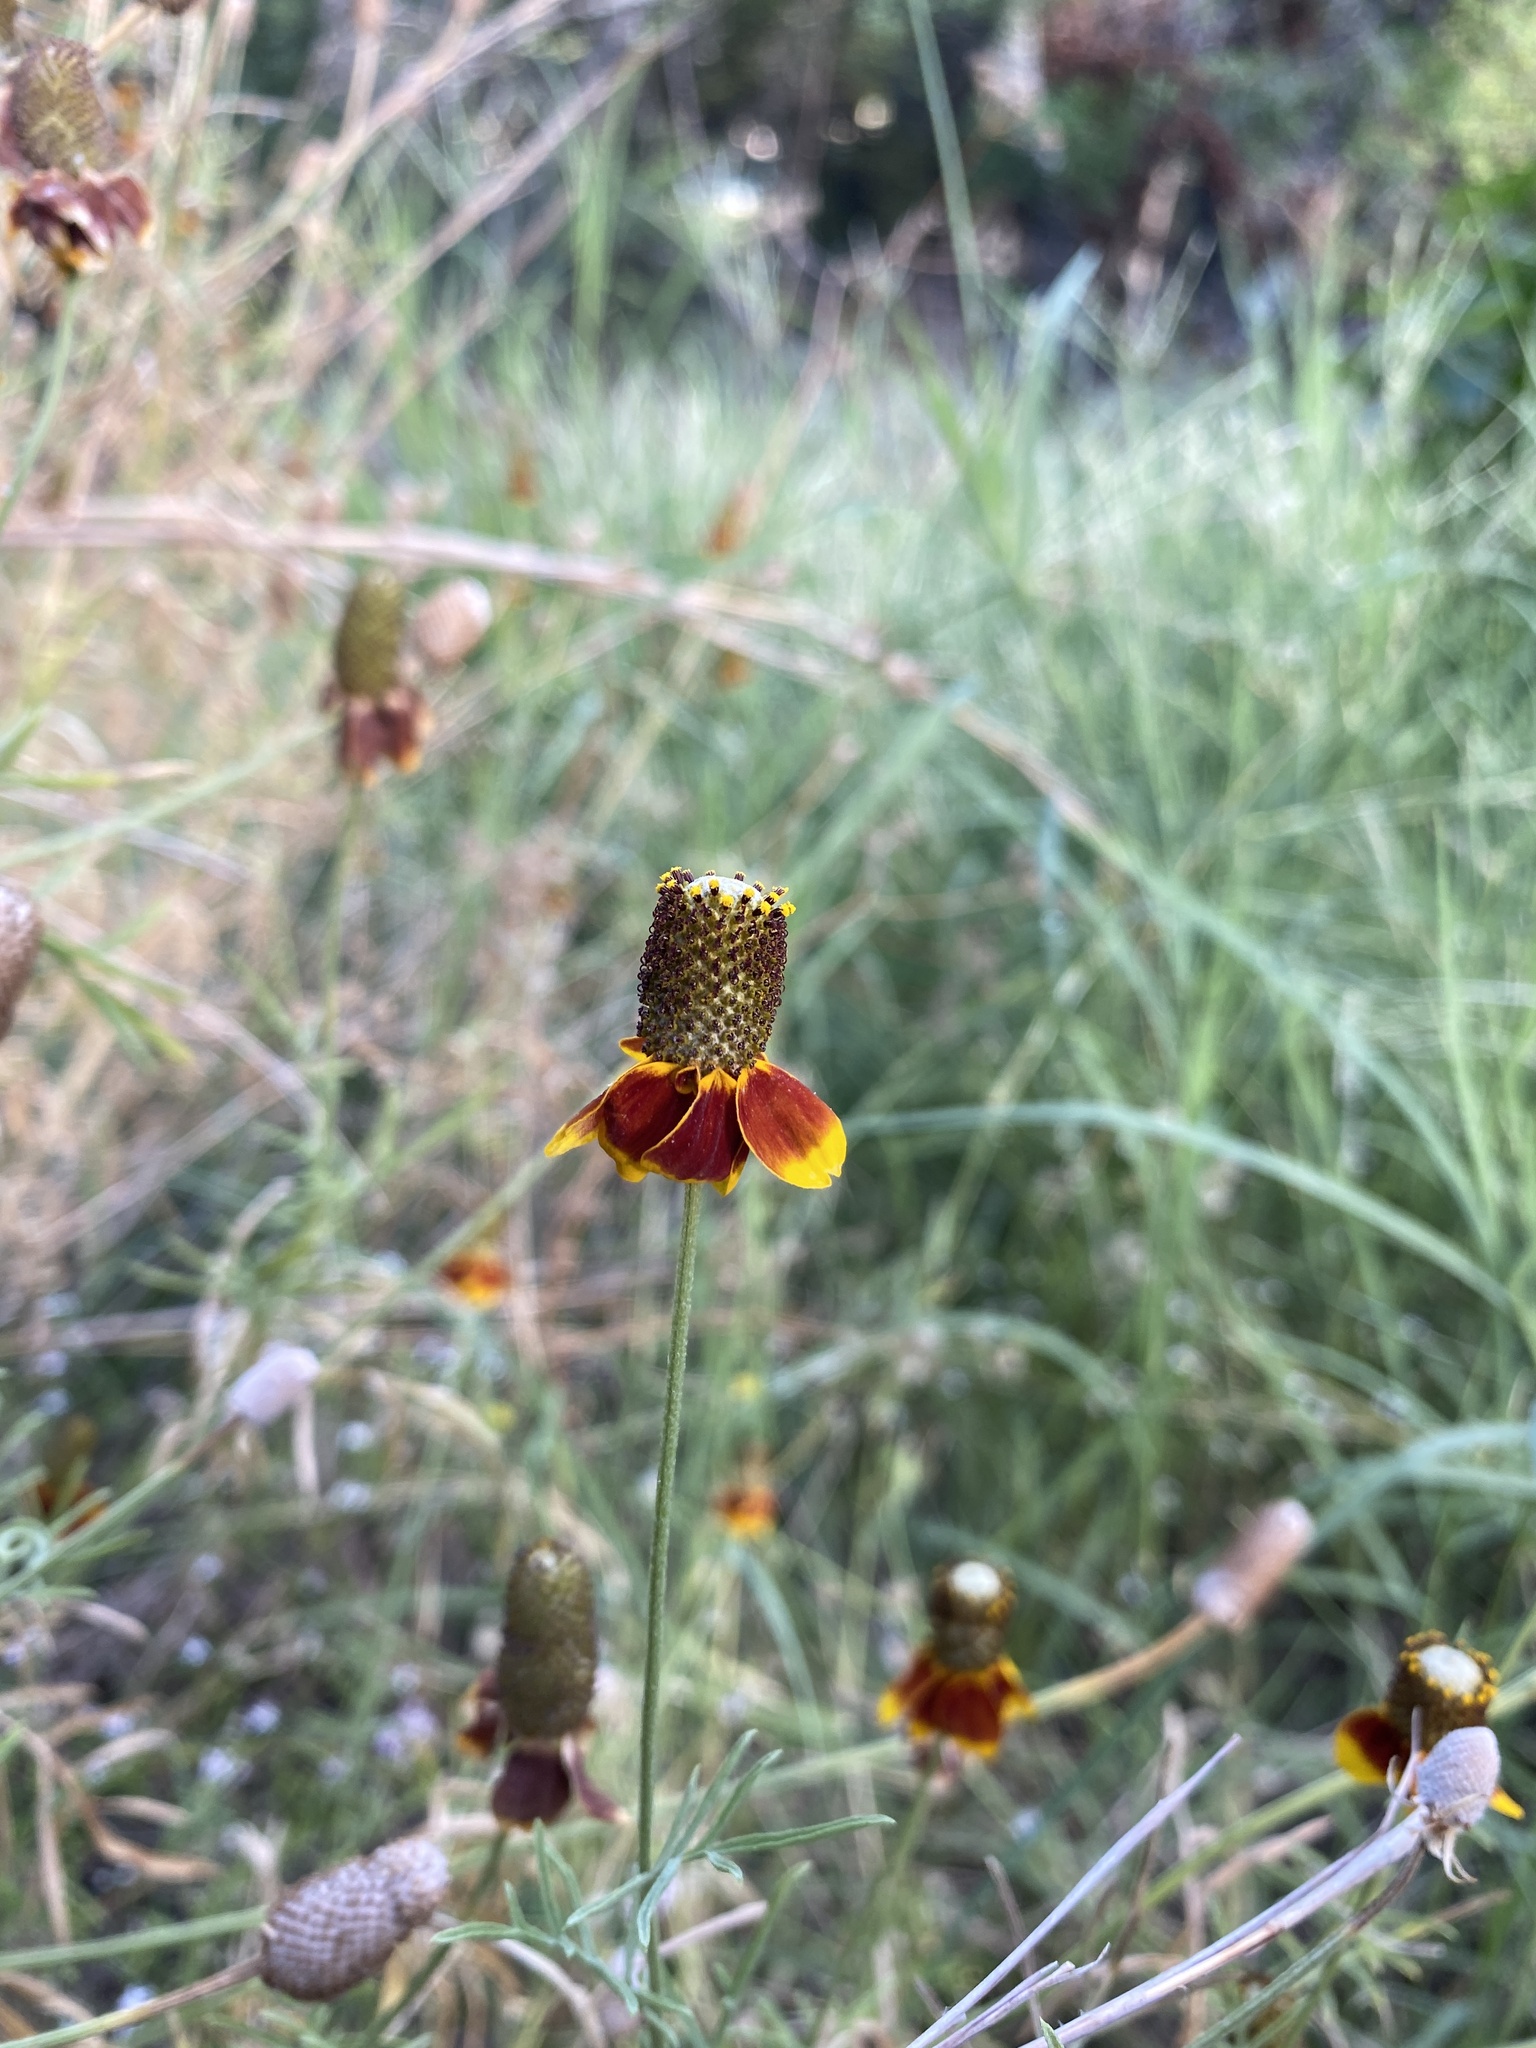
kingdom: Plantae
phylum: Tracheophyta
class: Magnoliopsida
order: Asterales
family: Asteraceae
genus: Ratibida
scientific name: Ratibida columnifera
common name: Prairie coneflower
